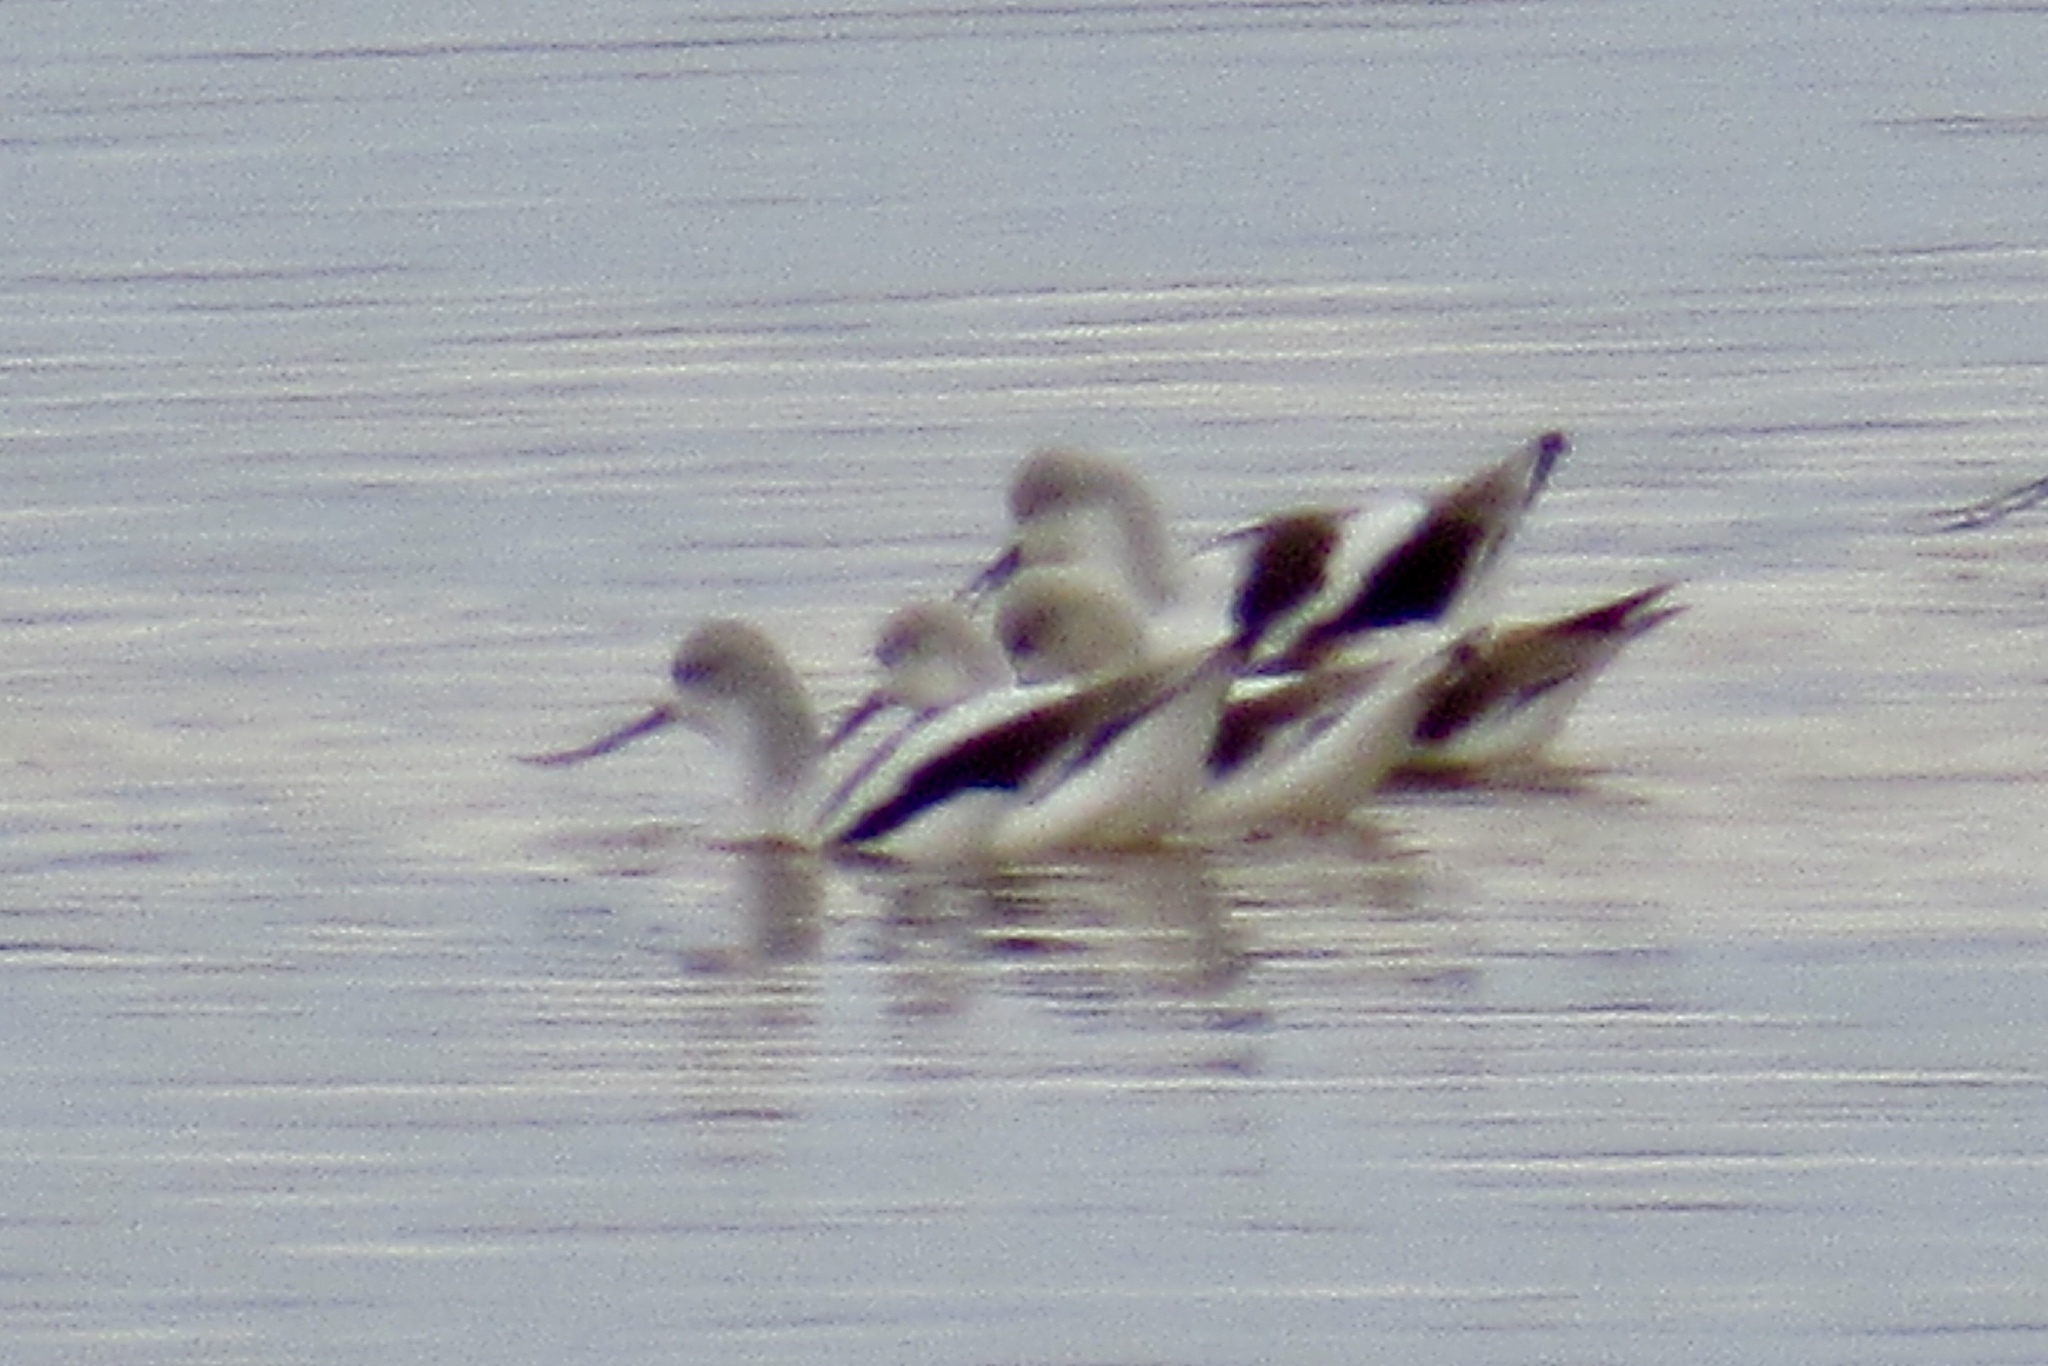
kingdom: Animalia
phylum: Chordata
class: Aves
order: Charadriiformes
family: Recurvirostridae
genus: Recurvirostra
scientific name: Recurvirostra americana
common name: American avocet
